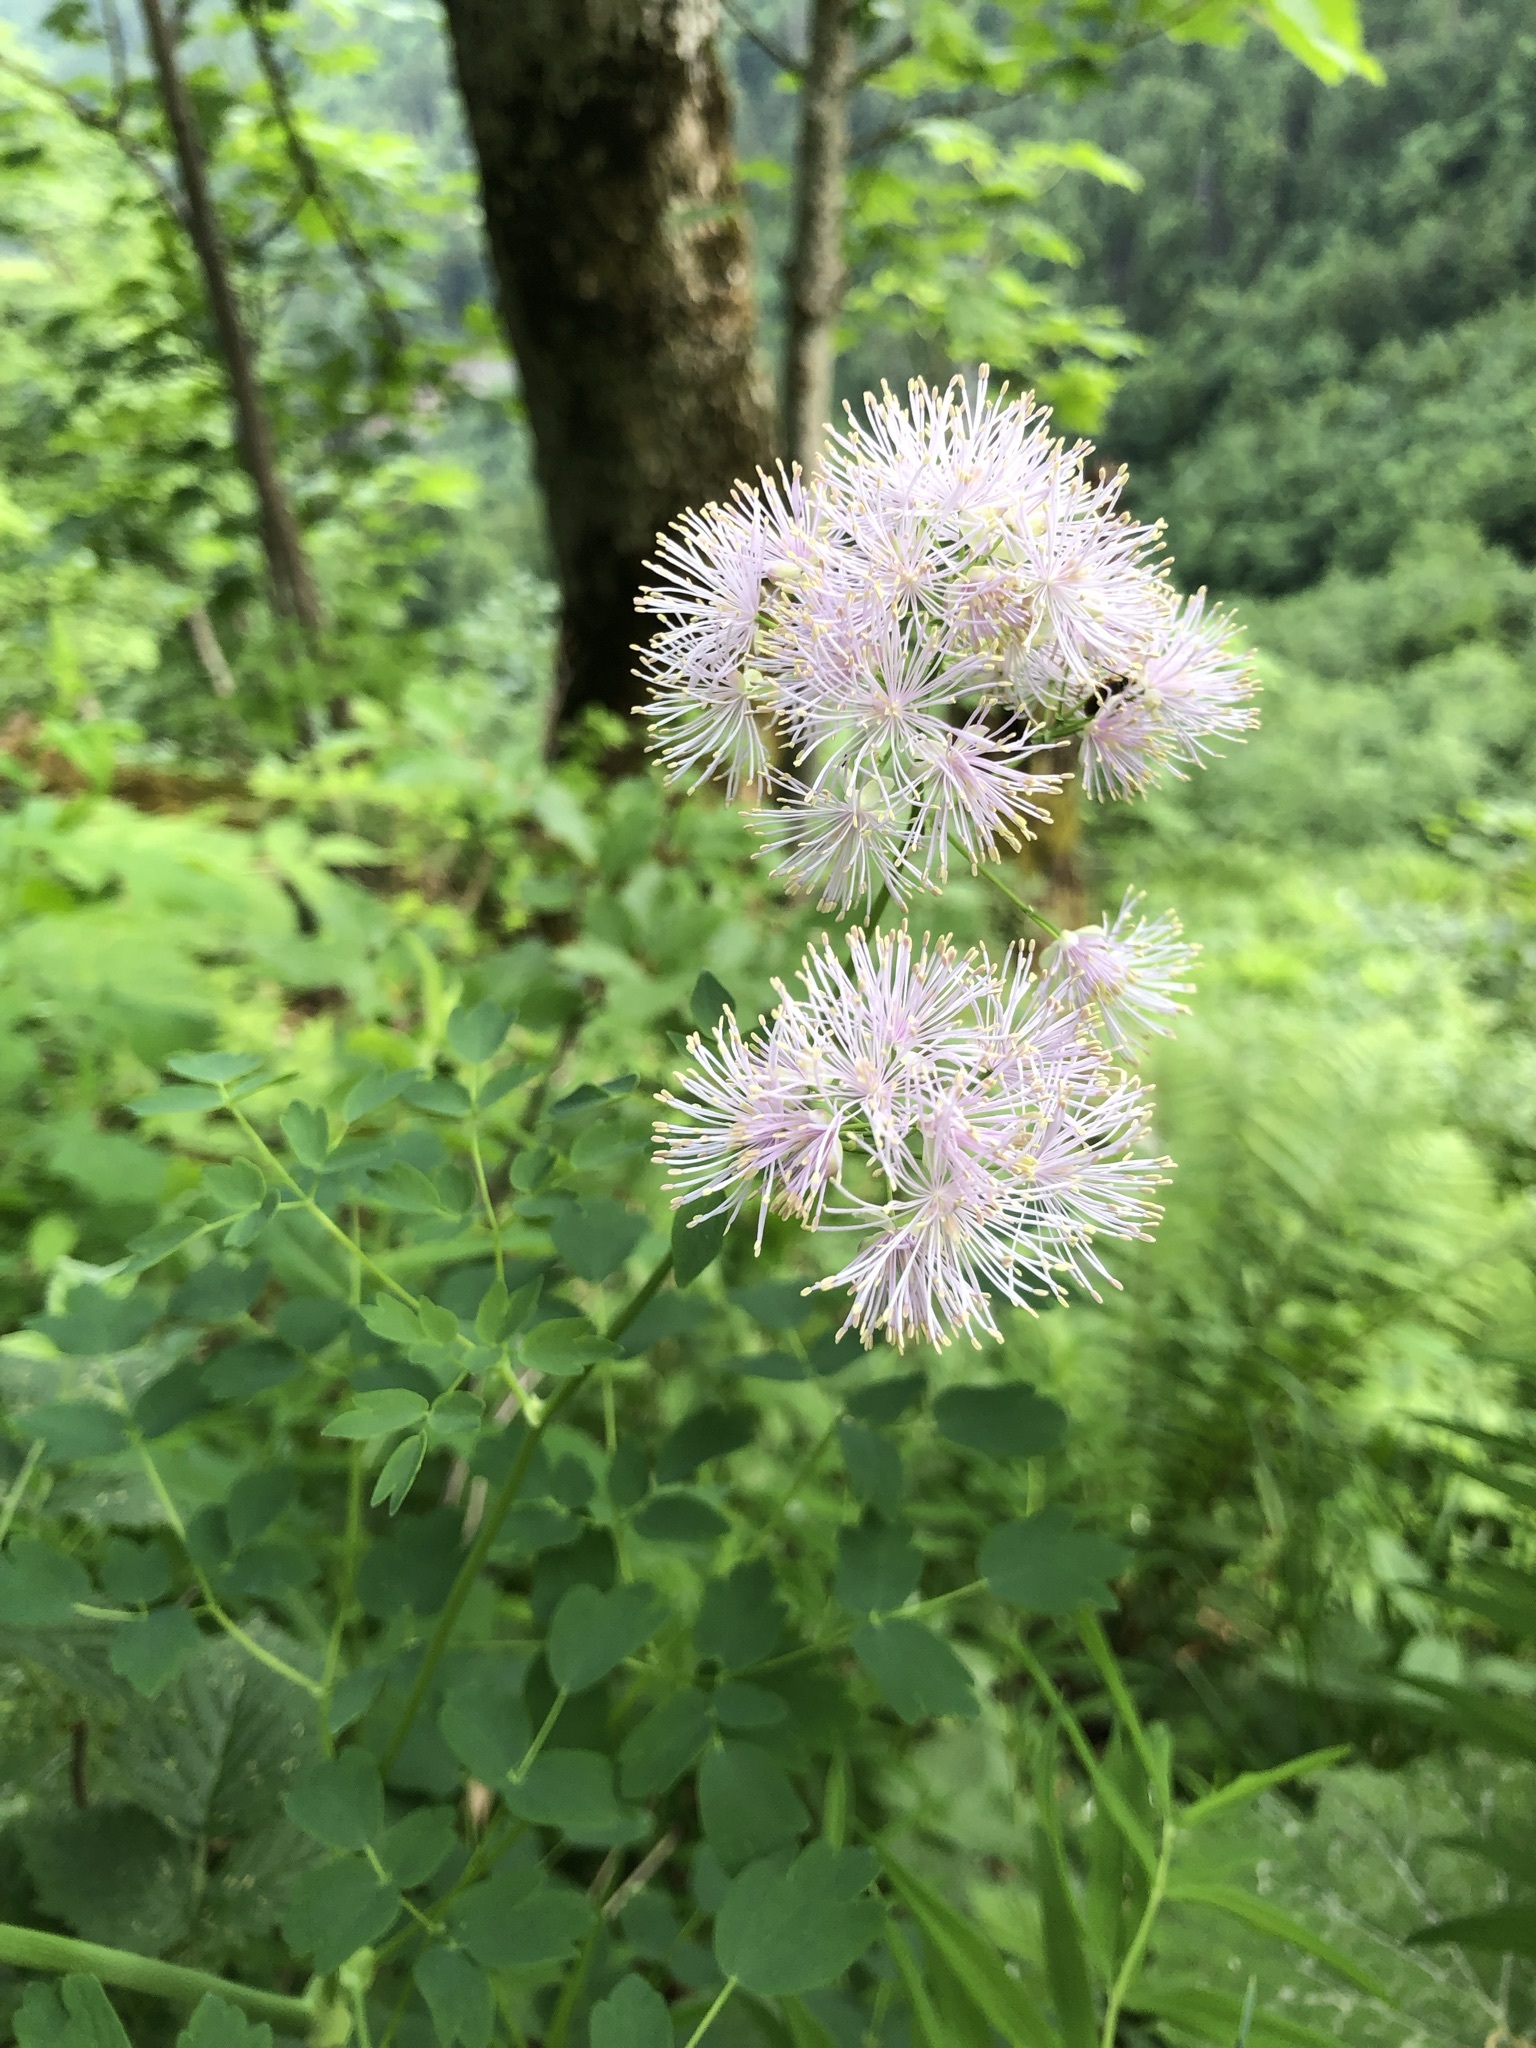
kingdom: Plantae
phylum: Tracheophyta
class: Magnoliopsida
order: Ranunculales
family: Ranunculaceae
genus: Thalictrum
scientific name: Thalictrum aquilegiifolium
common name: French meadow-rue
